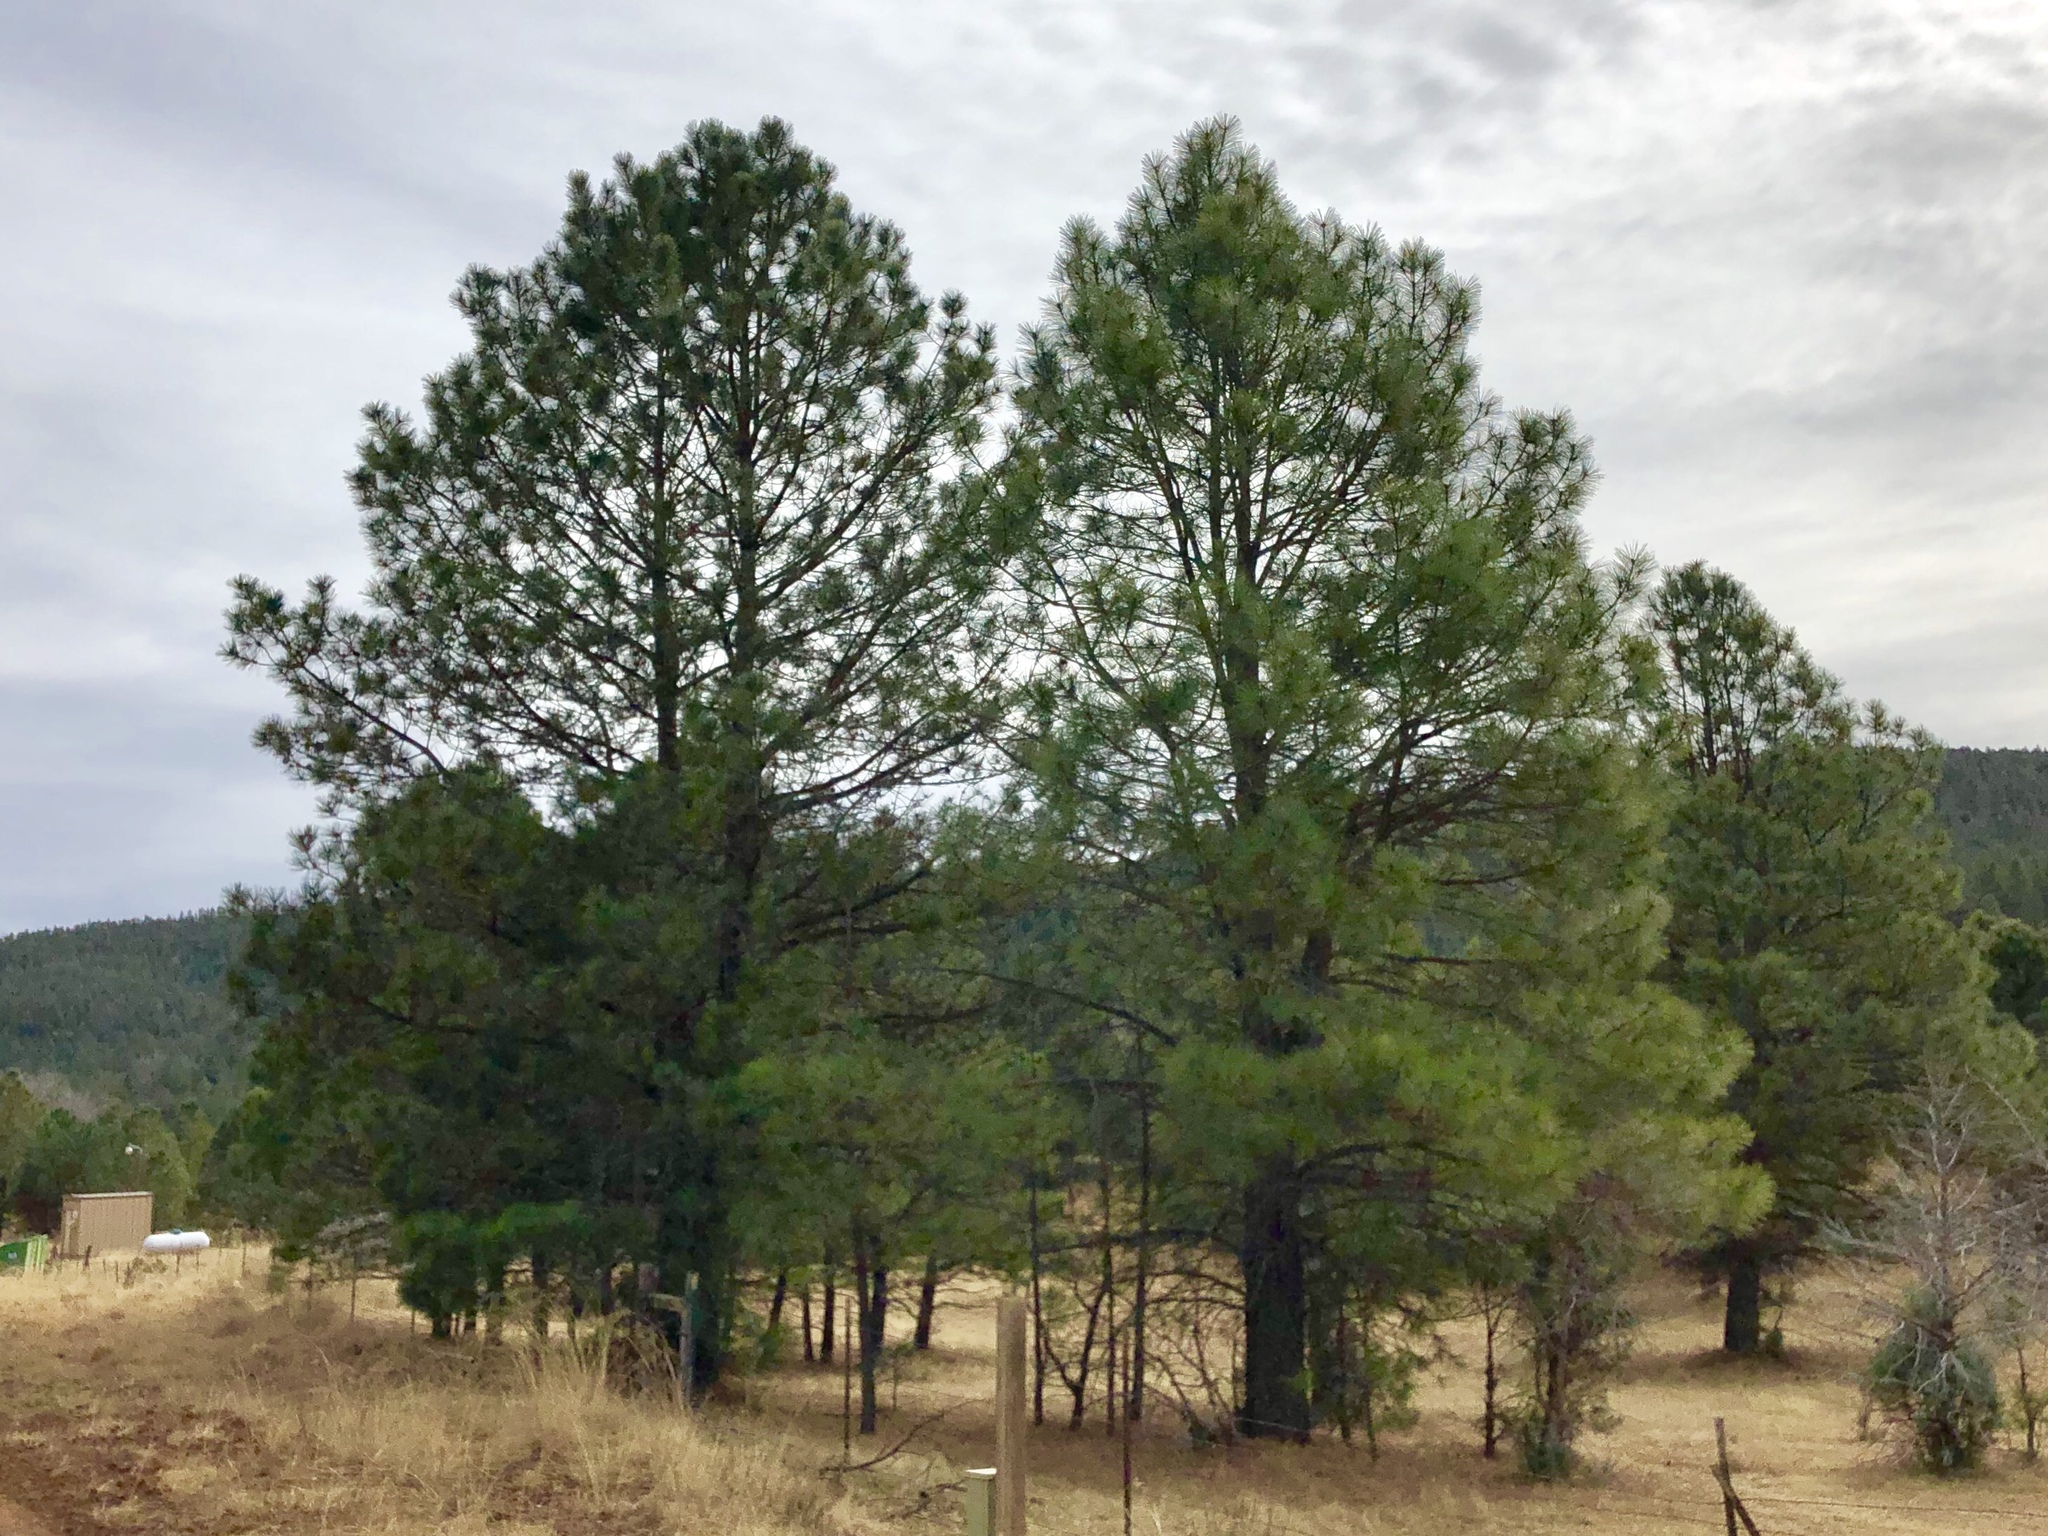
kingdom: Plantae
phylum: Tracheophyta
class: Pinopsida
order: Pinales
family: Pinaceae
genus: Pinus
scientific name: Pinus ponderosa
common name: Western yellow-pine
